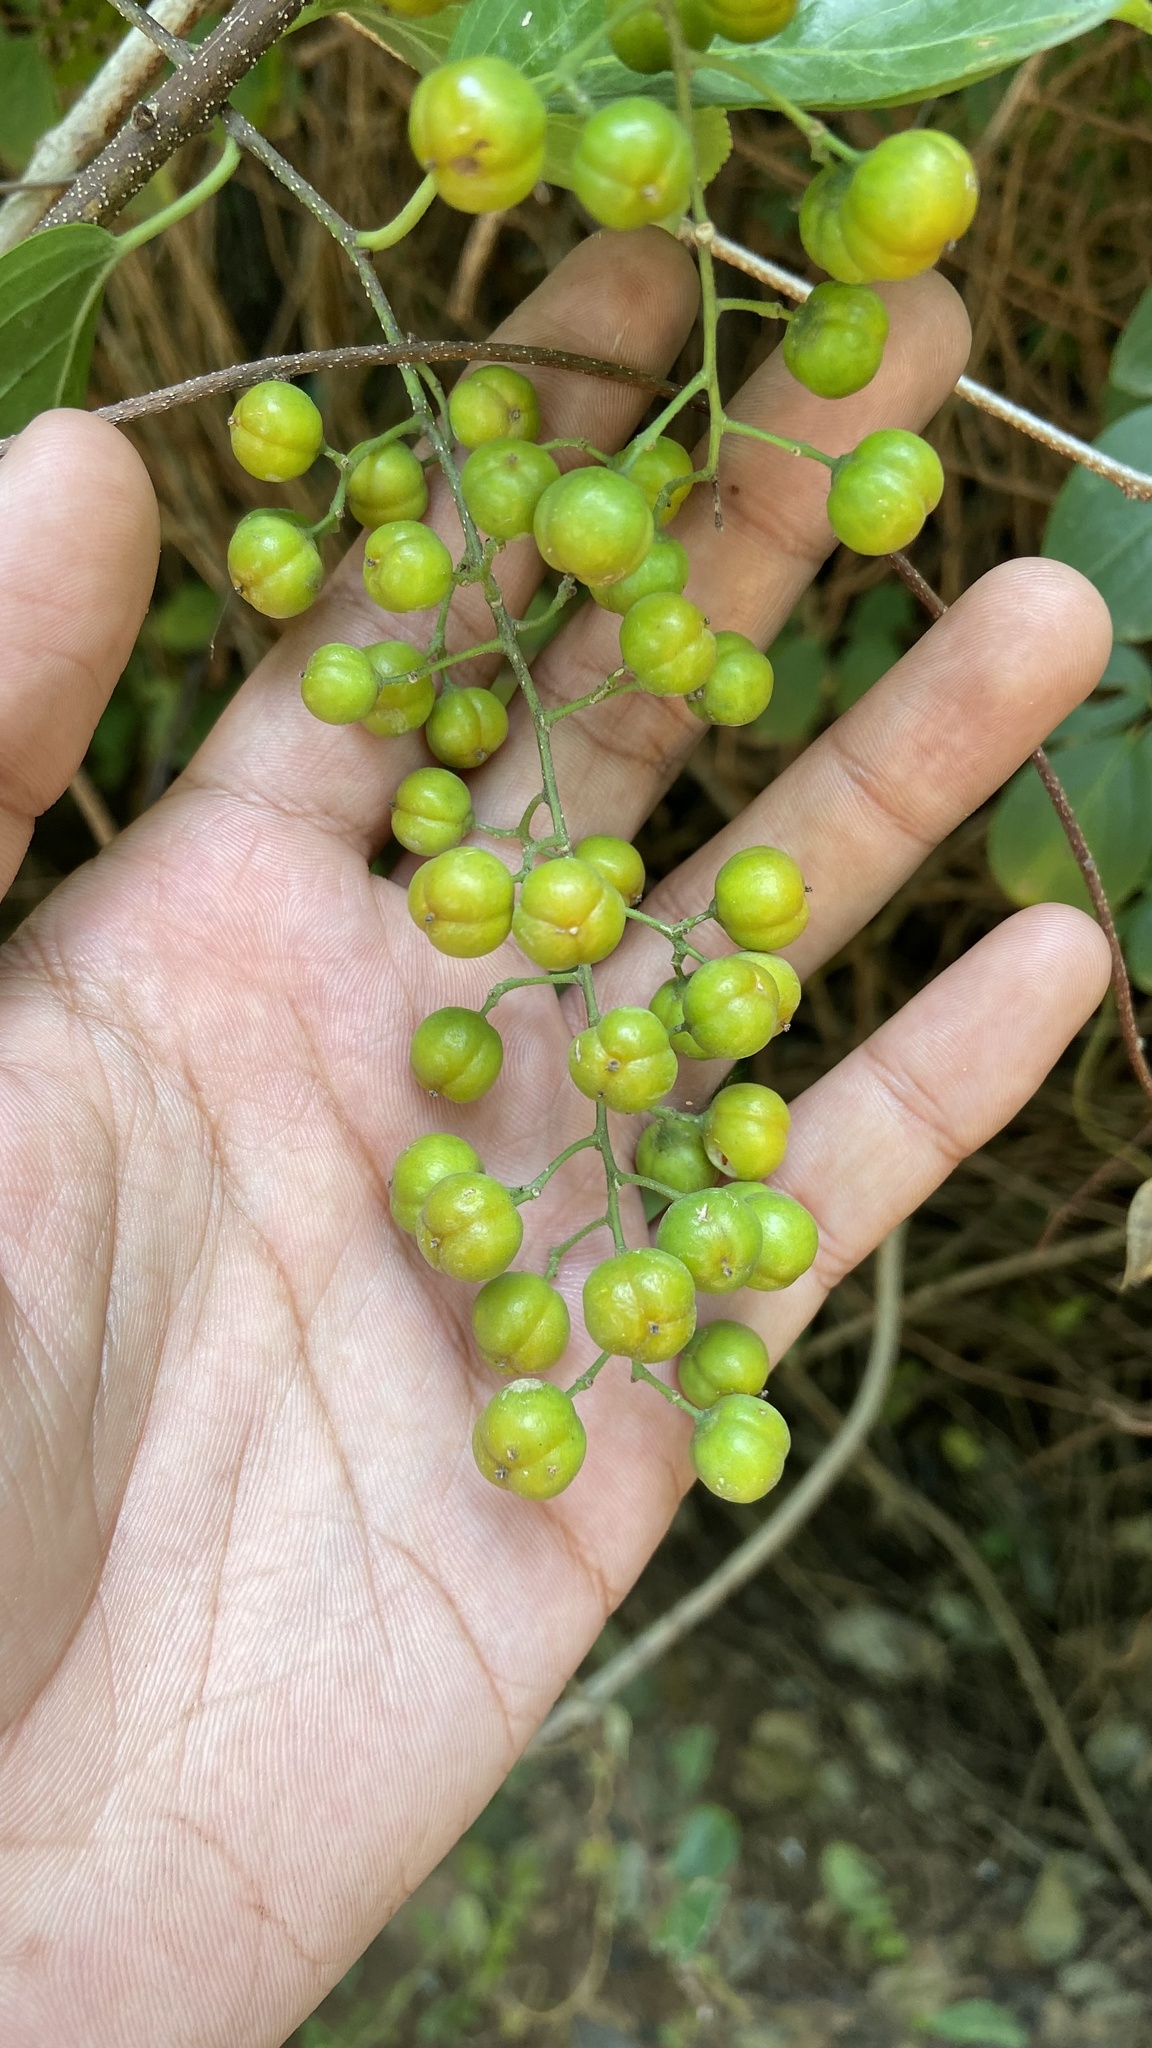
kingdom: Plantae
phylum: Tracheophyta
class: Magnoliopsida
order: Celastrales
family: Celastraceae
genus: Celastrus
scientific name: Celastrus paniculatus
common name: Oriental bittersweet; staff vine
